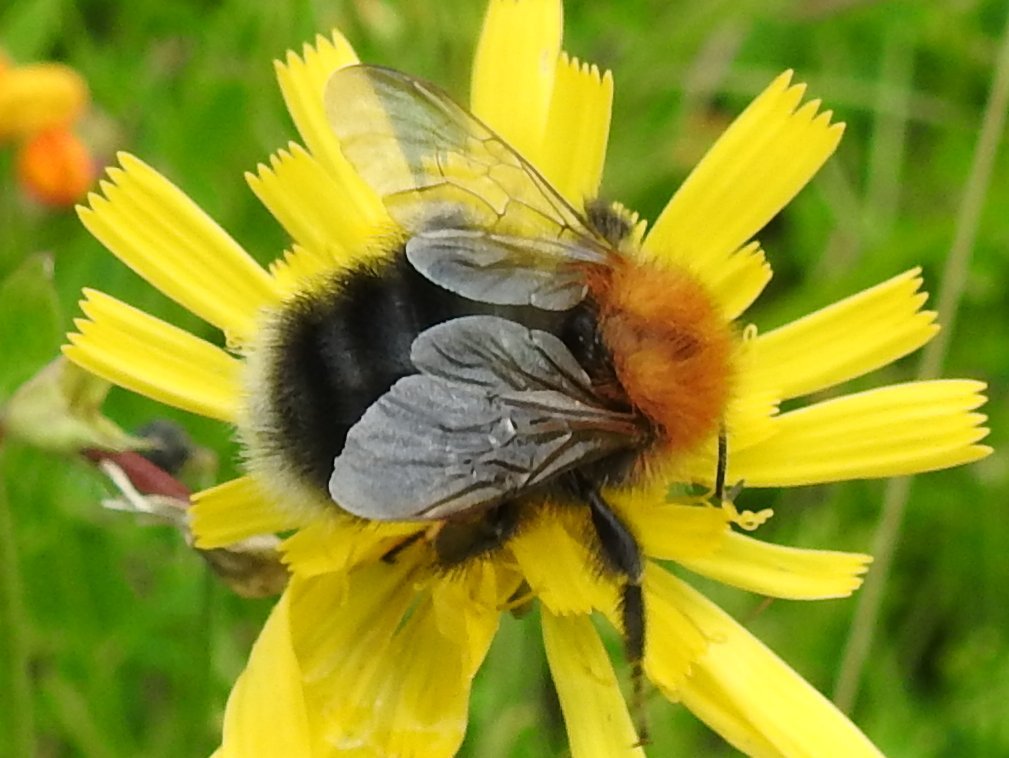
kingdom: Animalia
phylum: Arthropoda
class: Insecta
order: Hymenoptera
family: Apidae
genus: Bombus
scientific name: Bombus hypnorum
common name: New garden bumblebee
